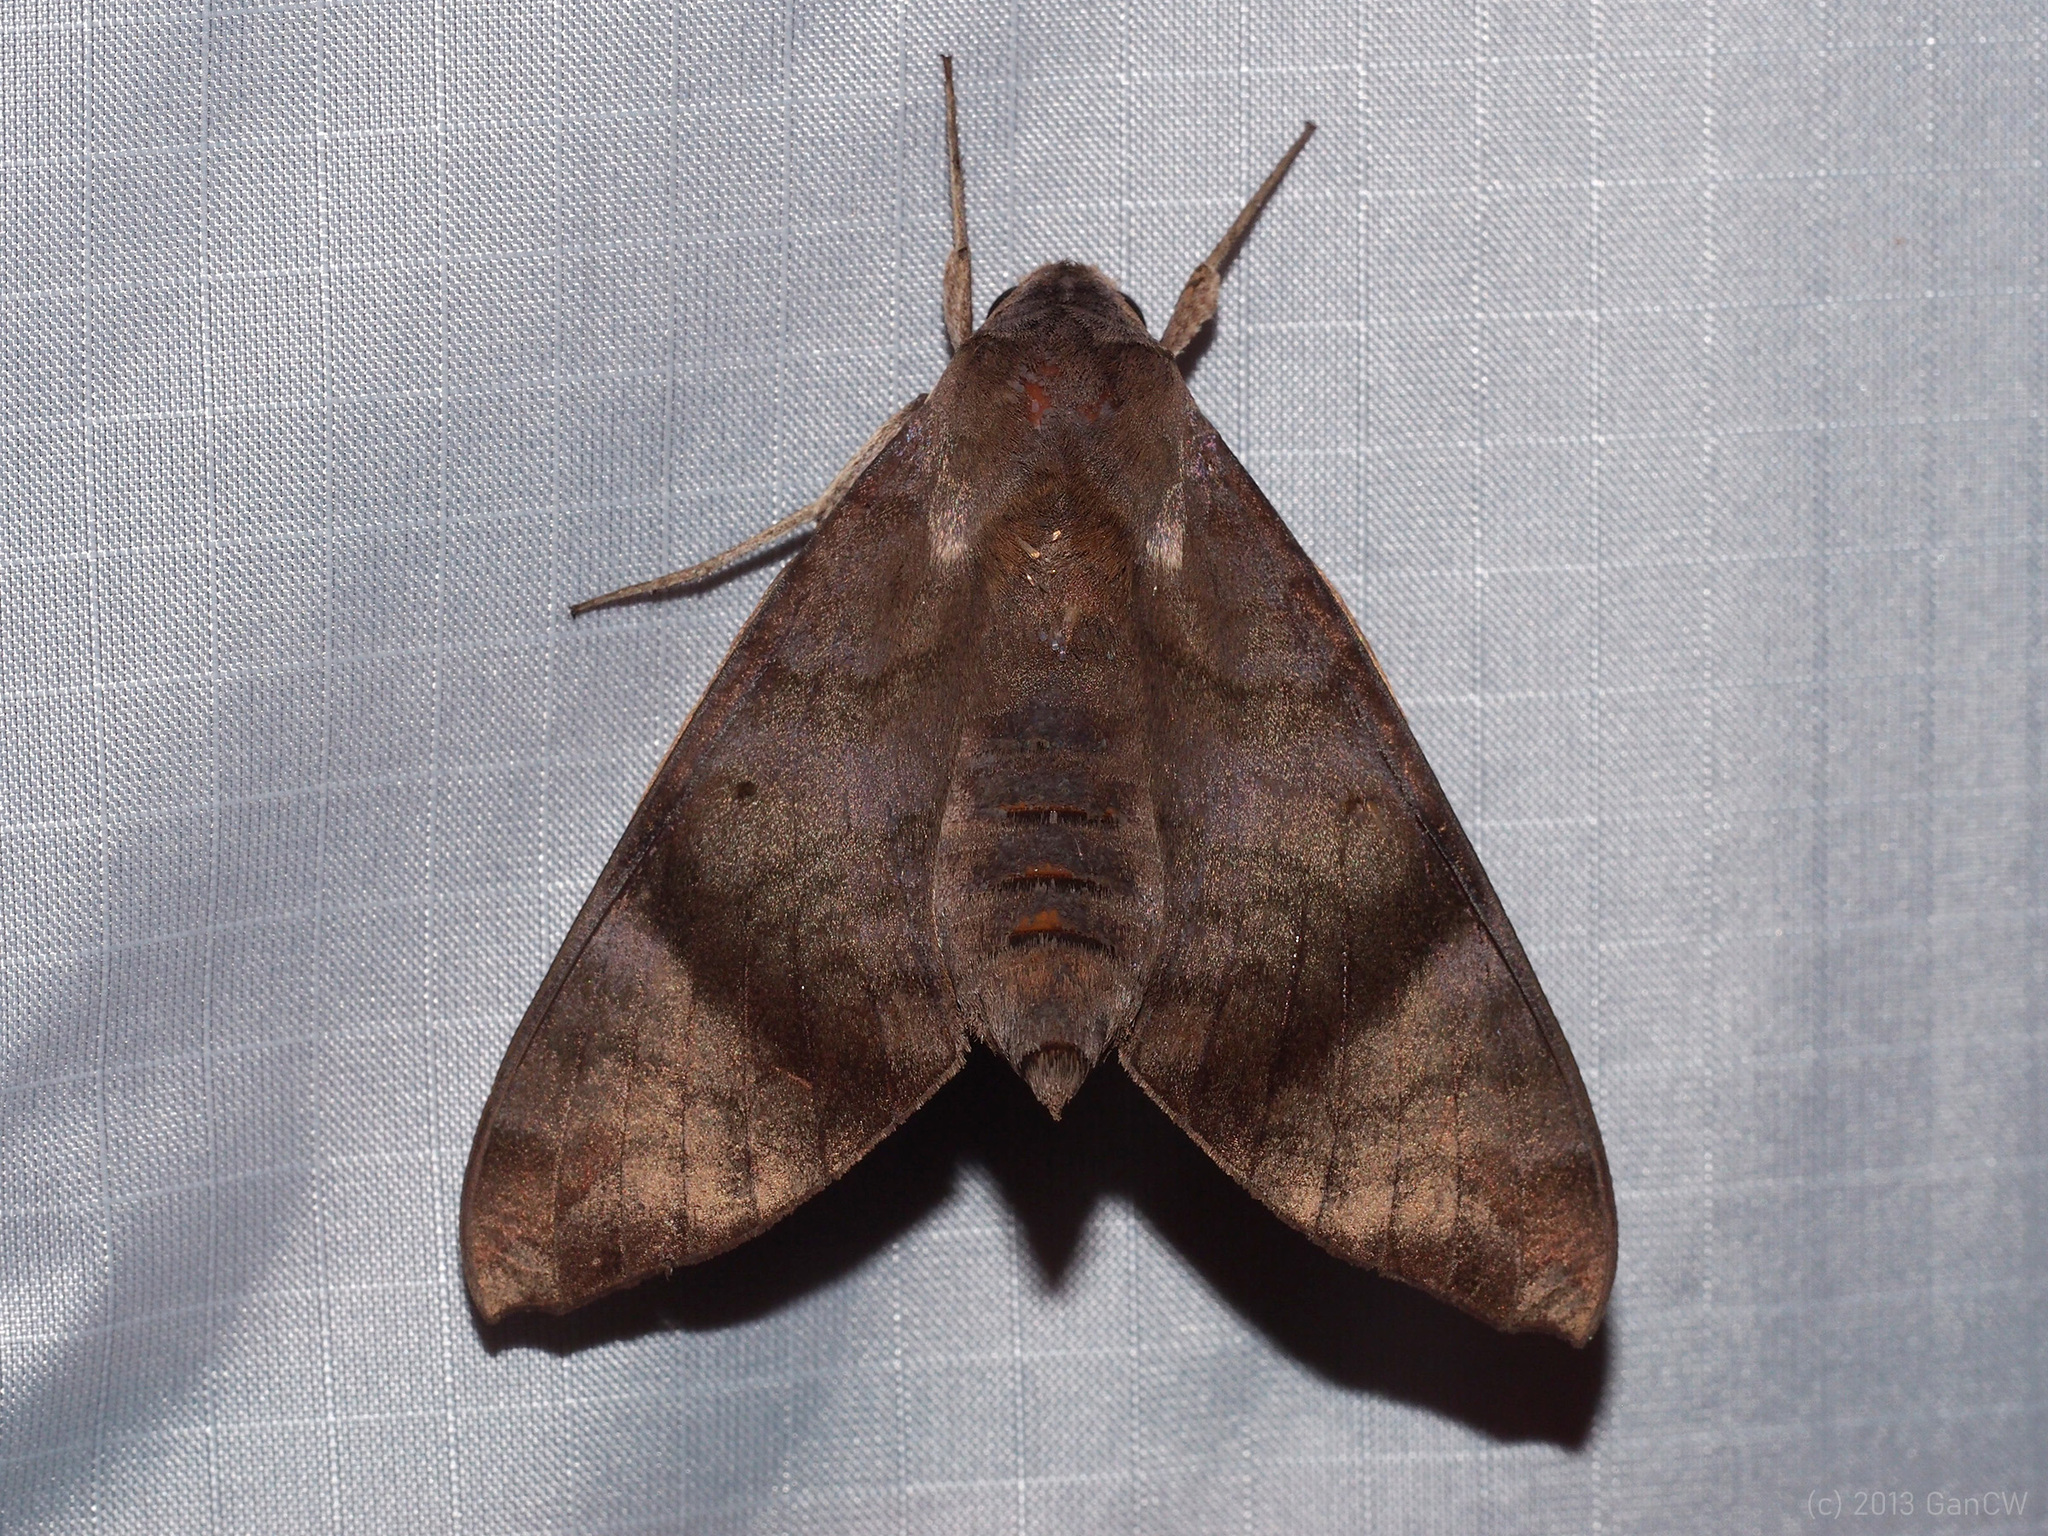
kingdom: Animalia
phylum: Arthropoda
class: Insecta
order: Lepidoptera
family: Sphingidae
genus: Acosmeryx
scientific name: Acosmeryx shervillii
